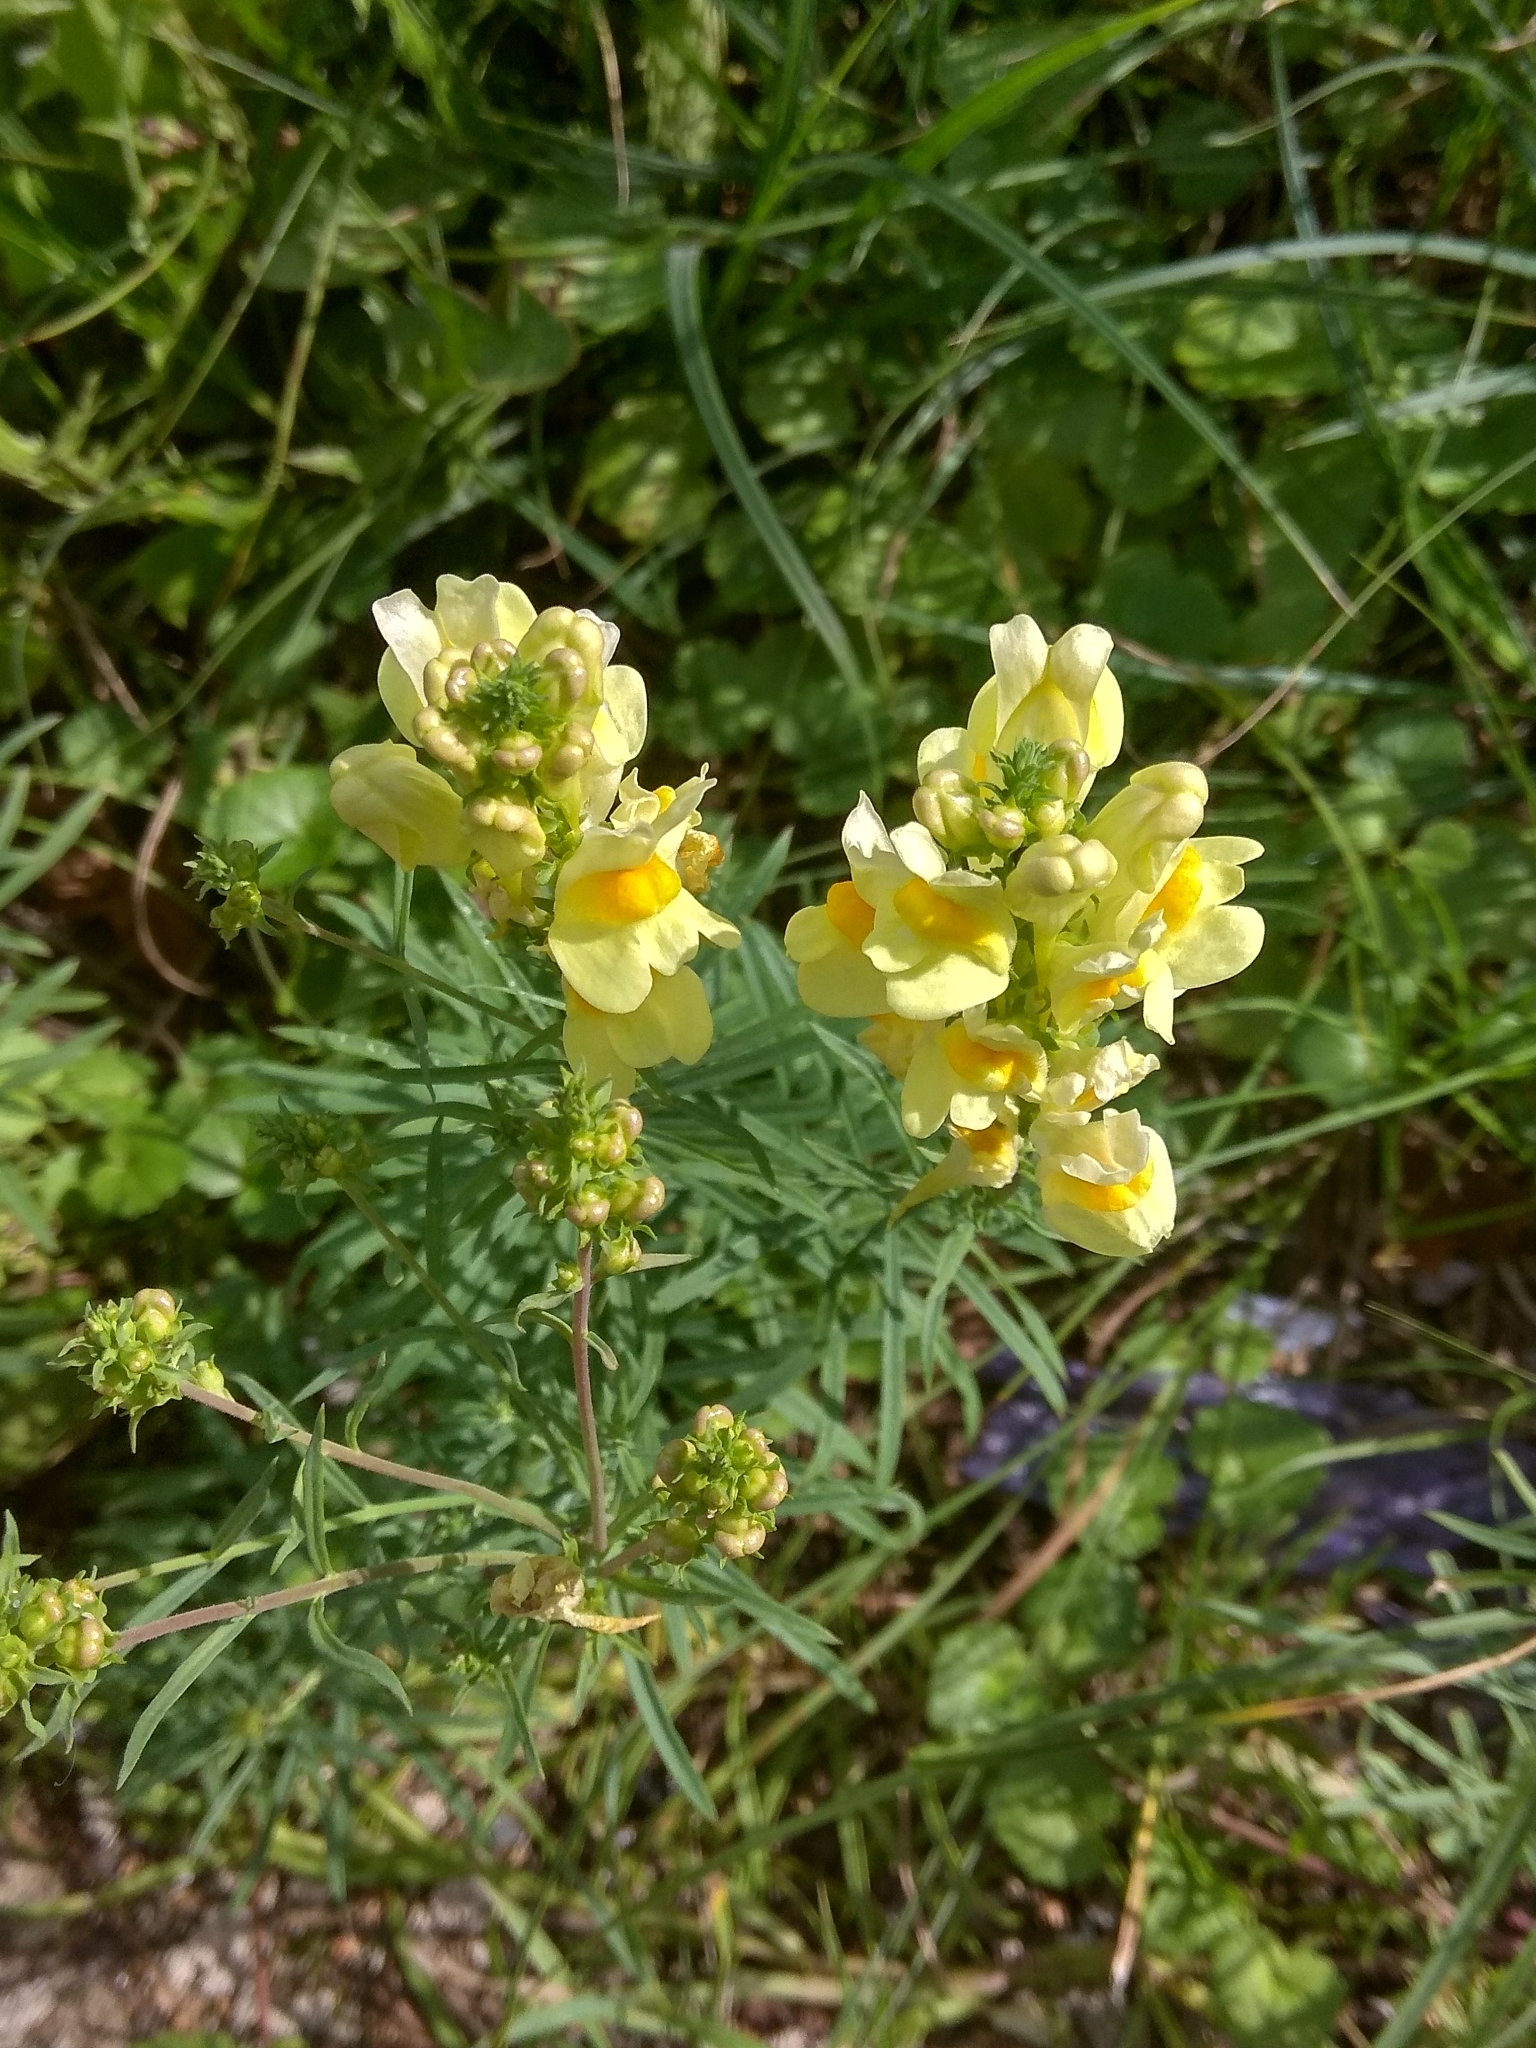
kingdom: Plantae
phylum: Tracheophyta
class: Magnoliopsida
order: Lamiales
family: Plantaginaceae
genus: Linaria
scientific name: Linaria vulgaris
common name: Butter and eggs
